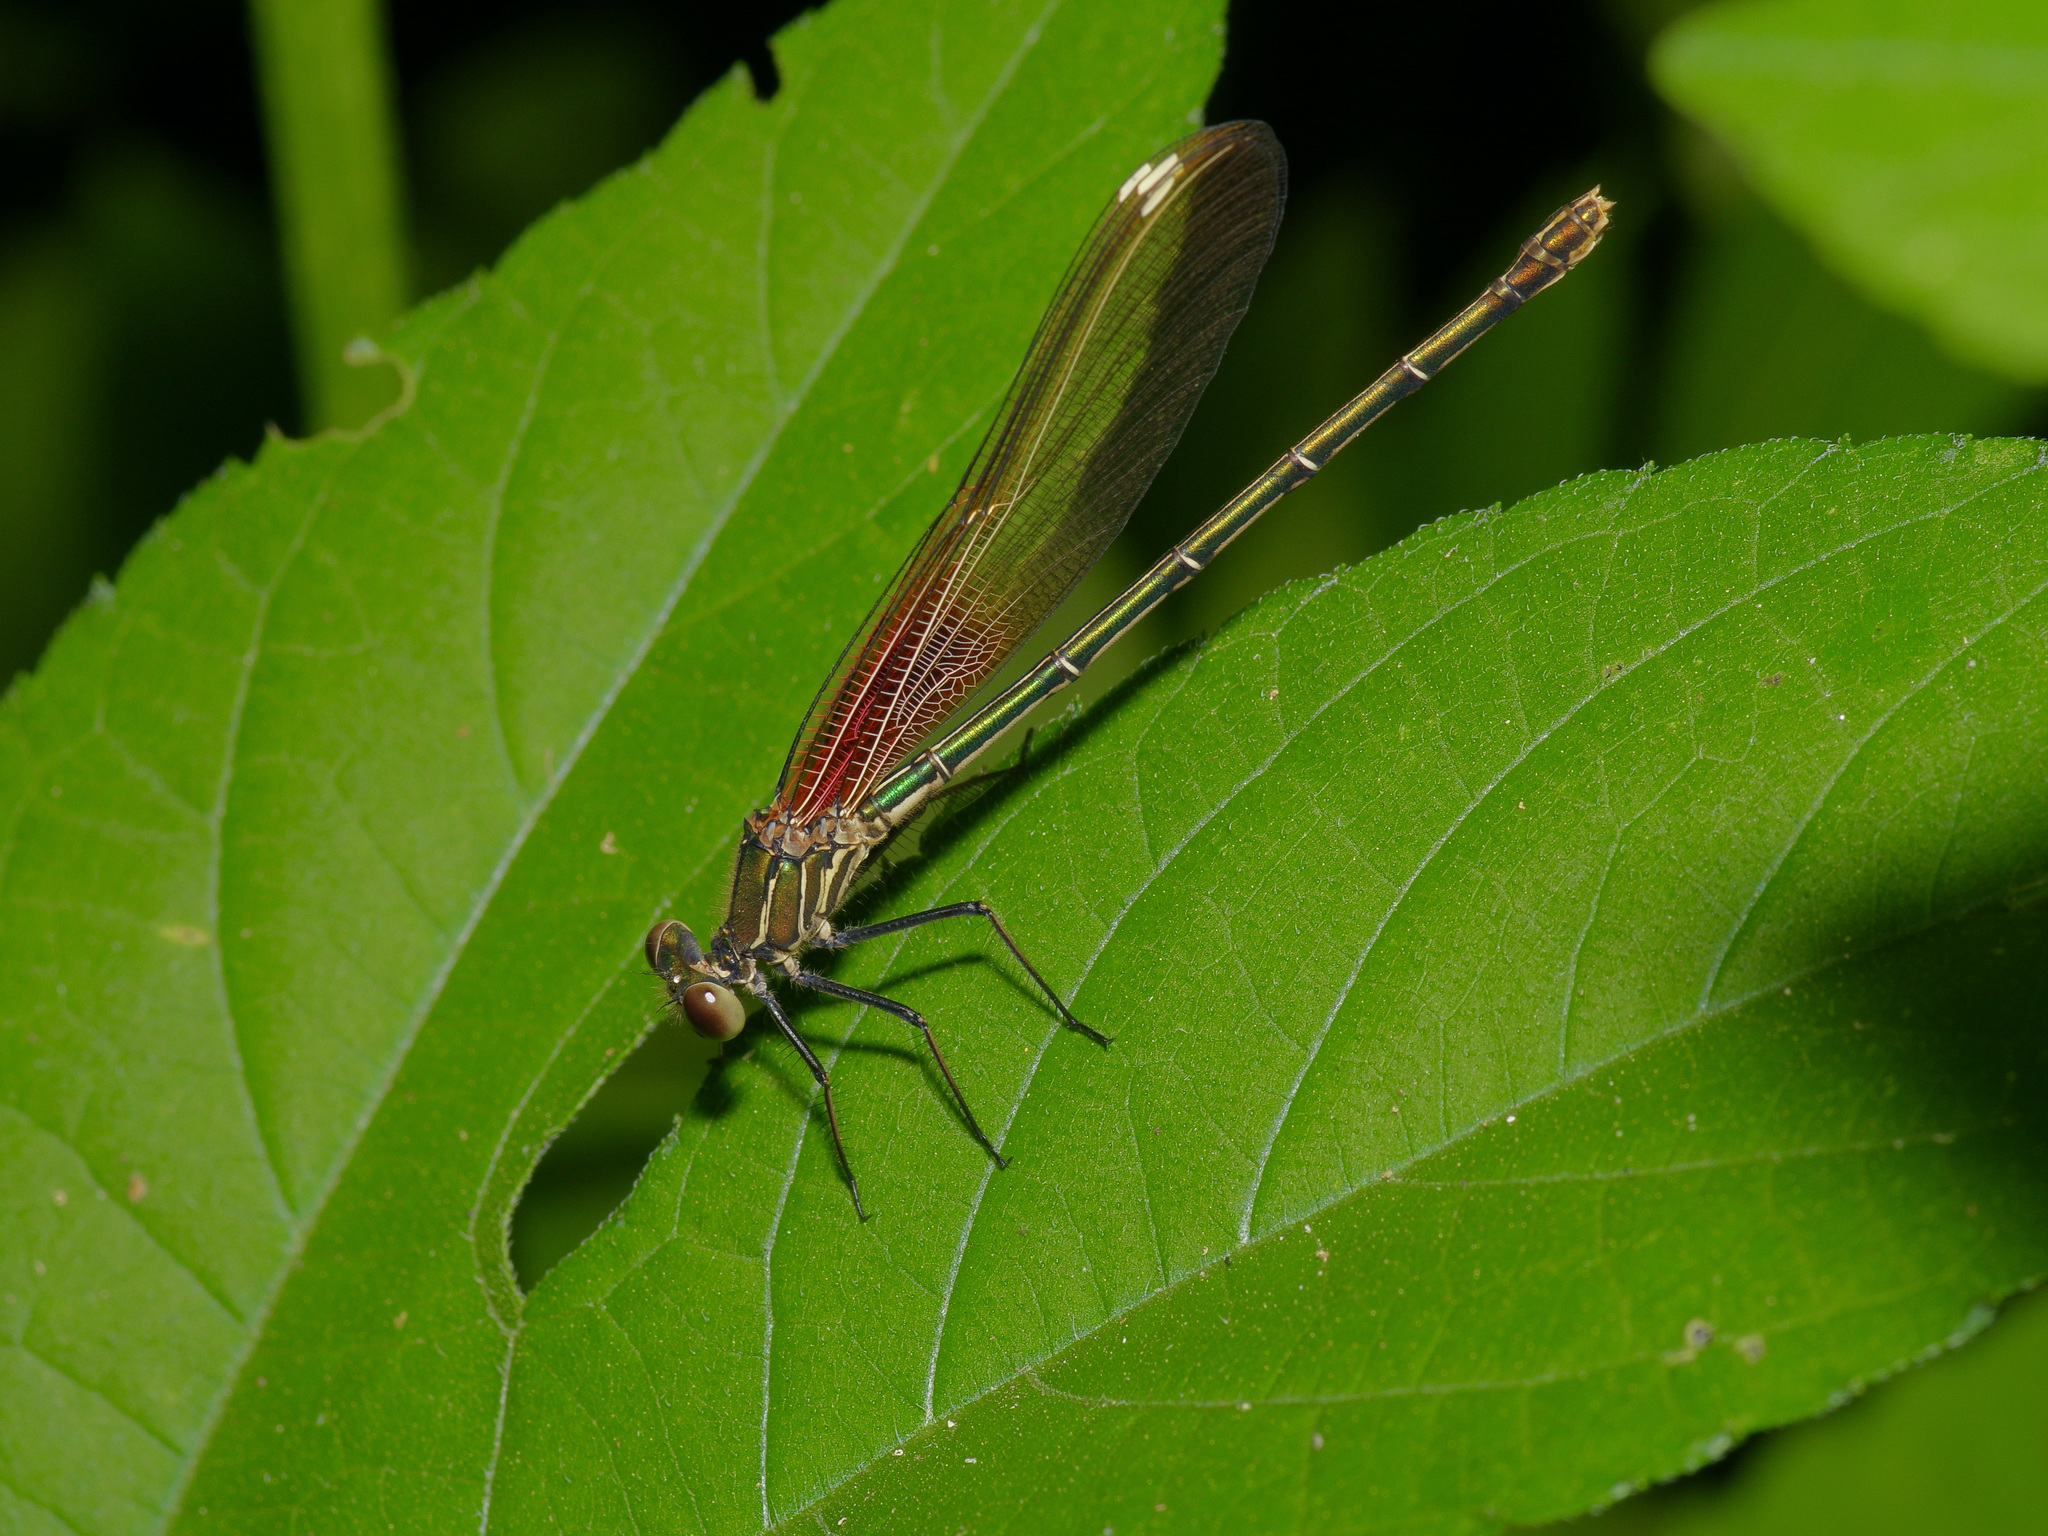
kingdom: Animalia
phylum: Arthropoda
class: Insecta
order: Odonata
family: Calopterygidae
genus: Hetaerina
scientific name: Hetaerina americana
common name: American rubyspot
